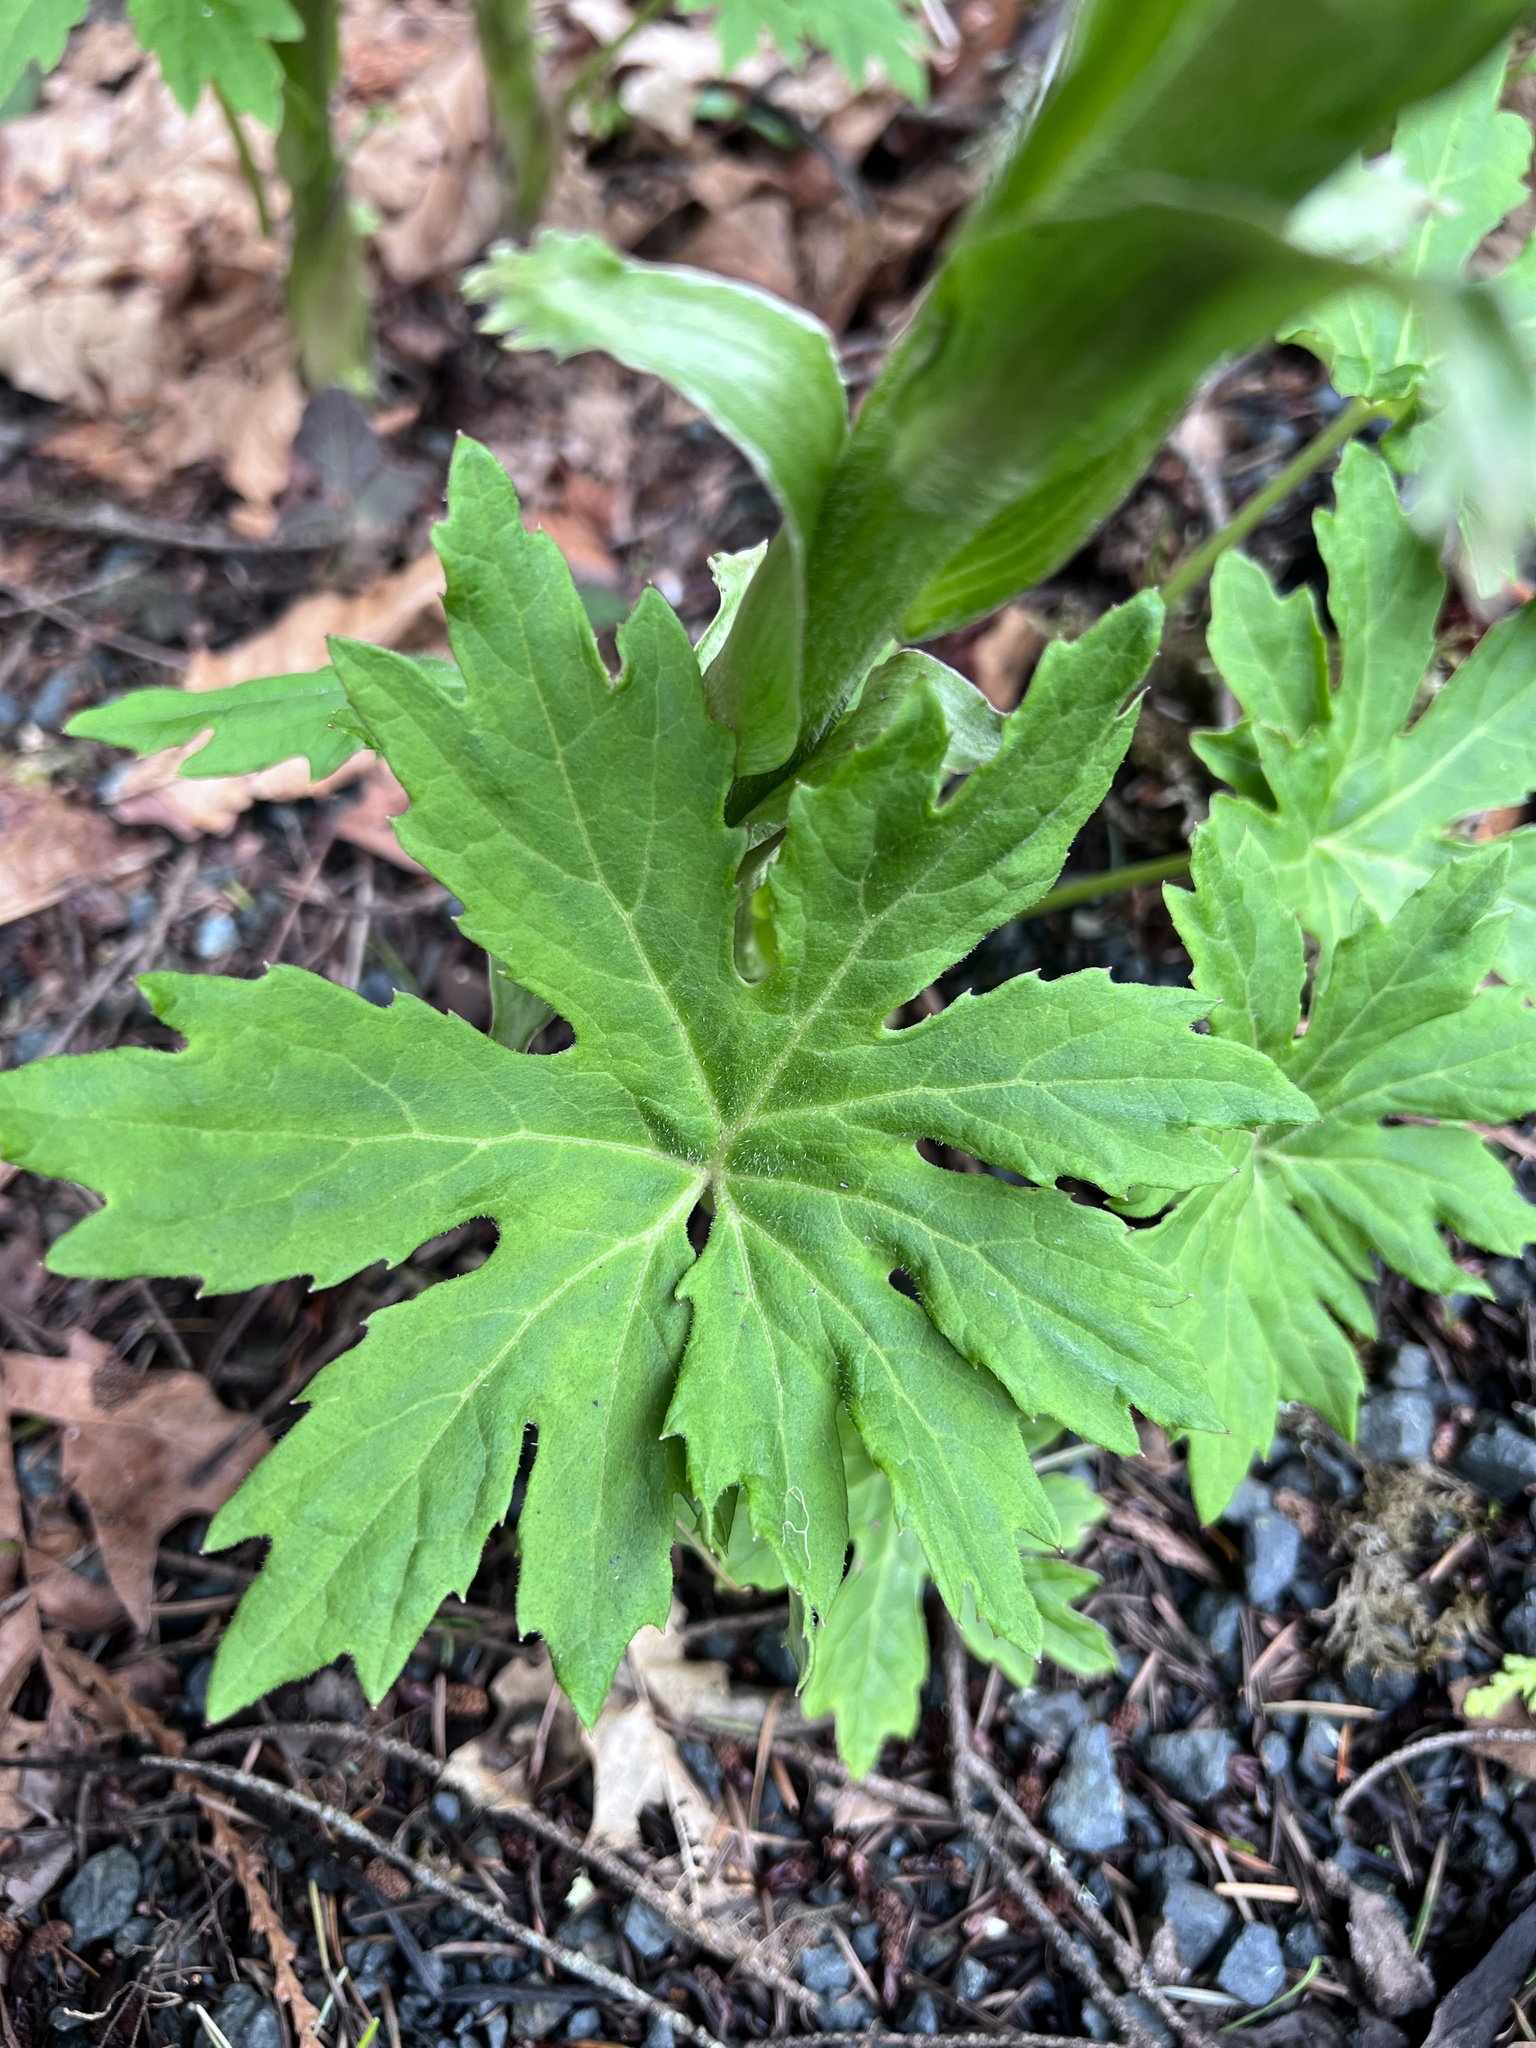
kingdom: Plantae
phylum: Tracheophyta
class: Magnoliopsida
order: Asterales
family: Asteraceae
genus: Petasites
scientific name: Petasites frigidus
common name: Arctic butterbur
